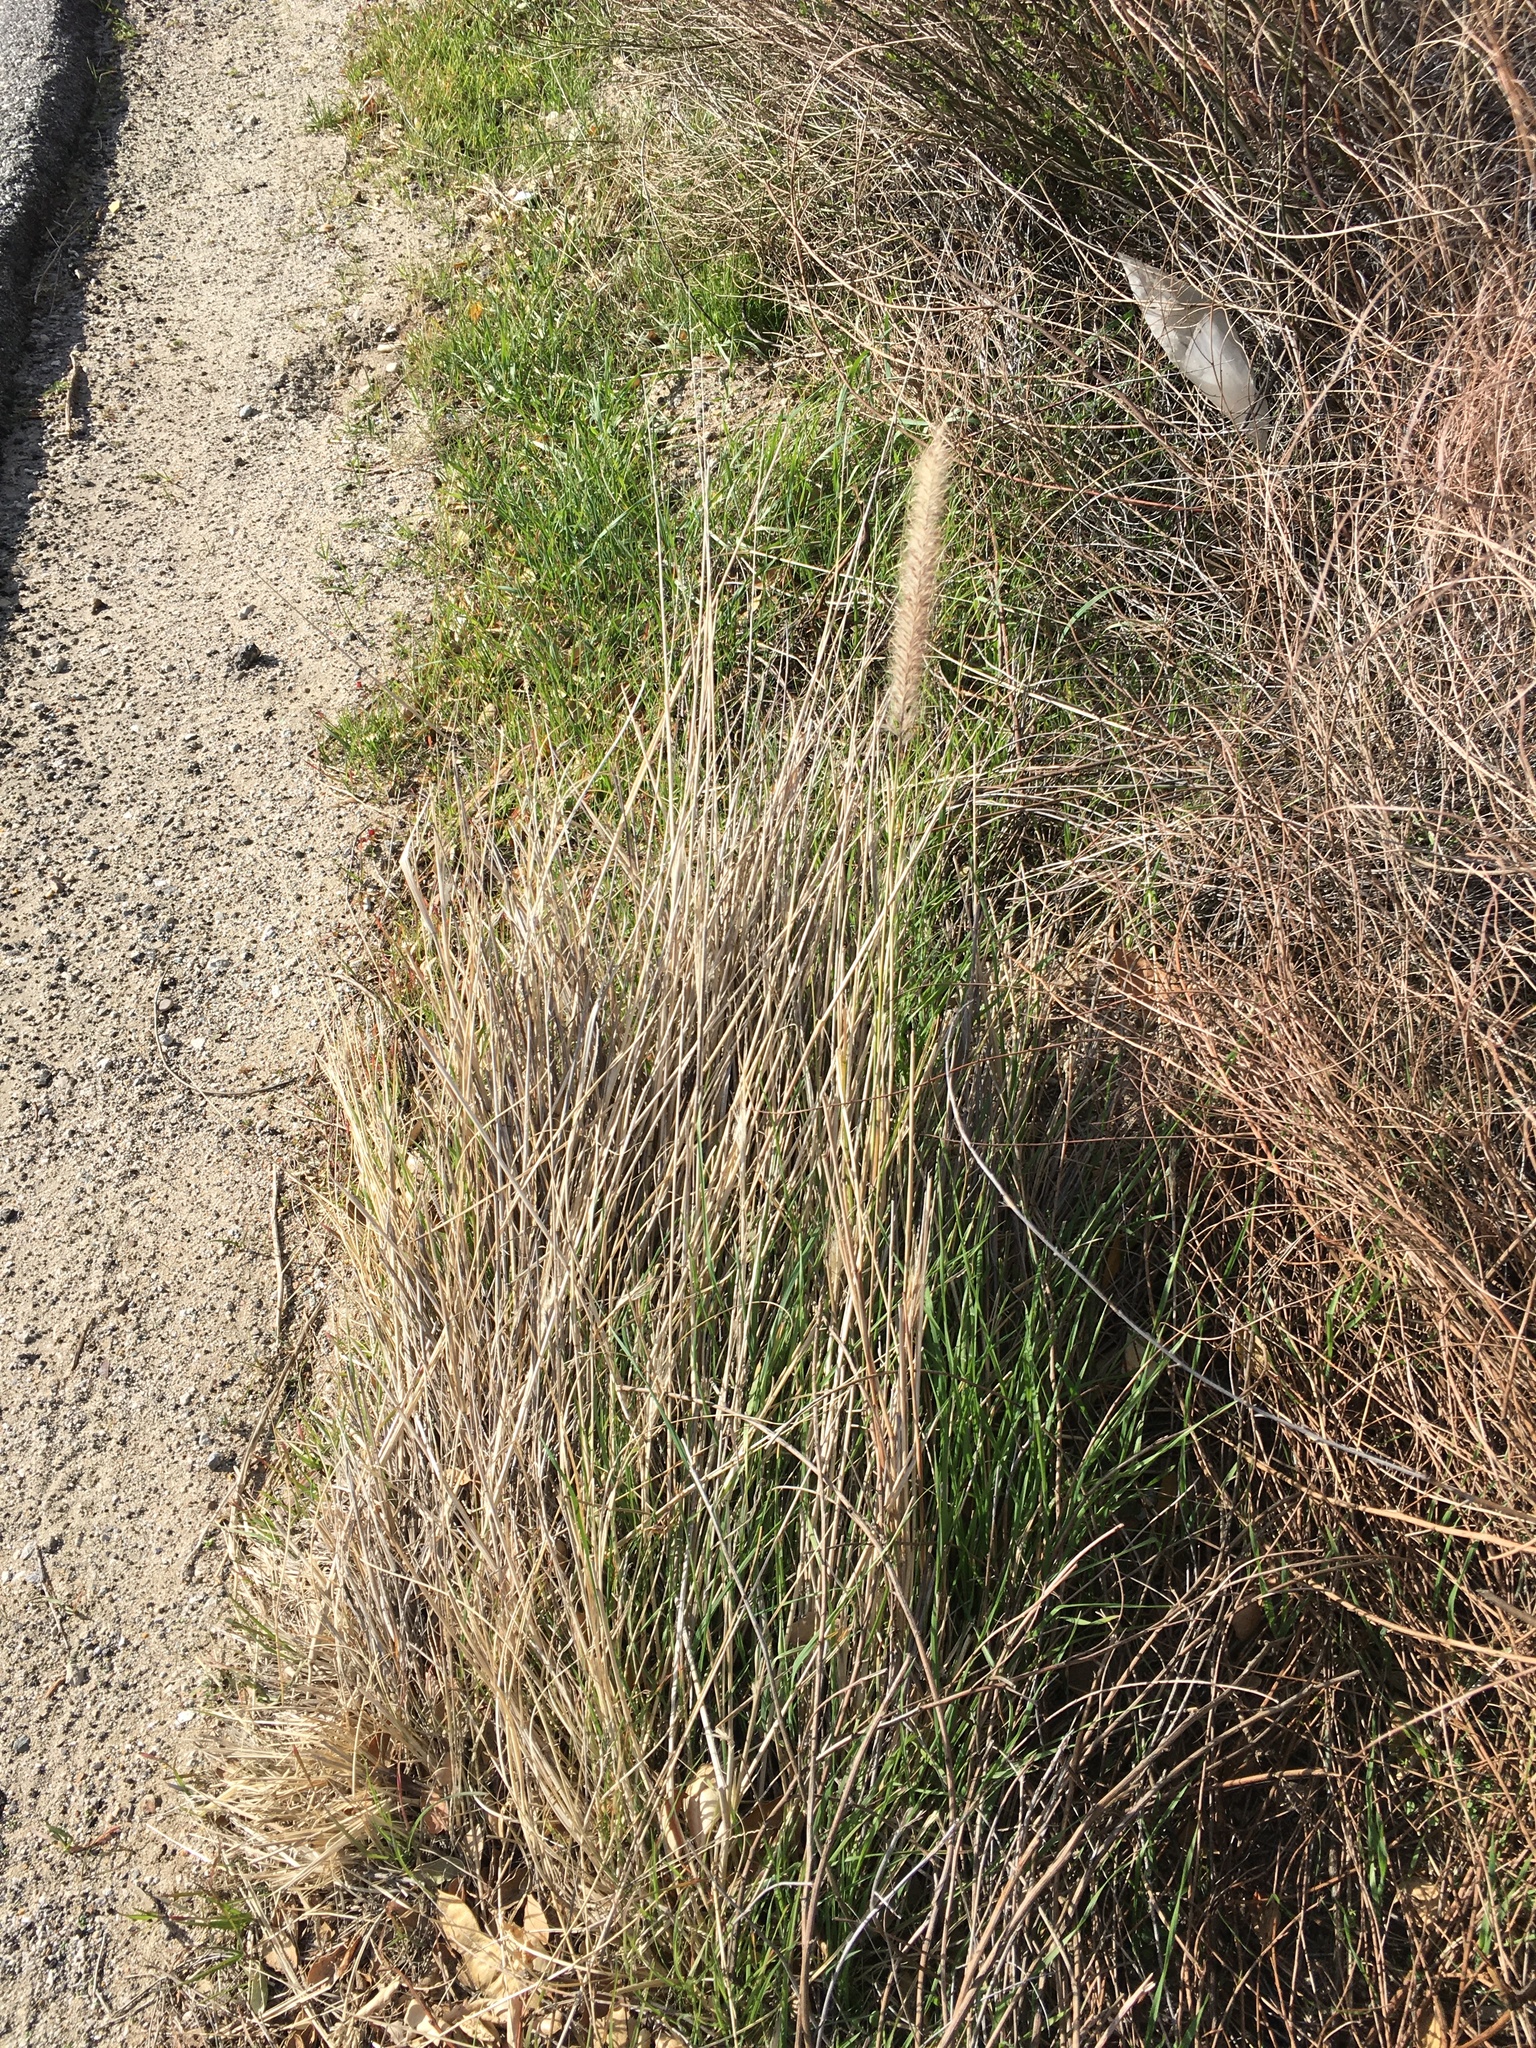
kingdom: Plantae
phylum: Tracheophyta
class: Liliopsida
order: Poales
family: Poaceae
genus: Cenchrus
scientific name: Cenchrus setaceus
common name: Crimson fountaingrass
